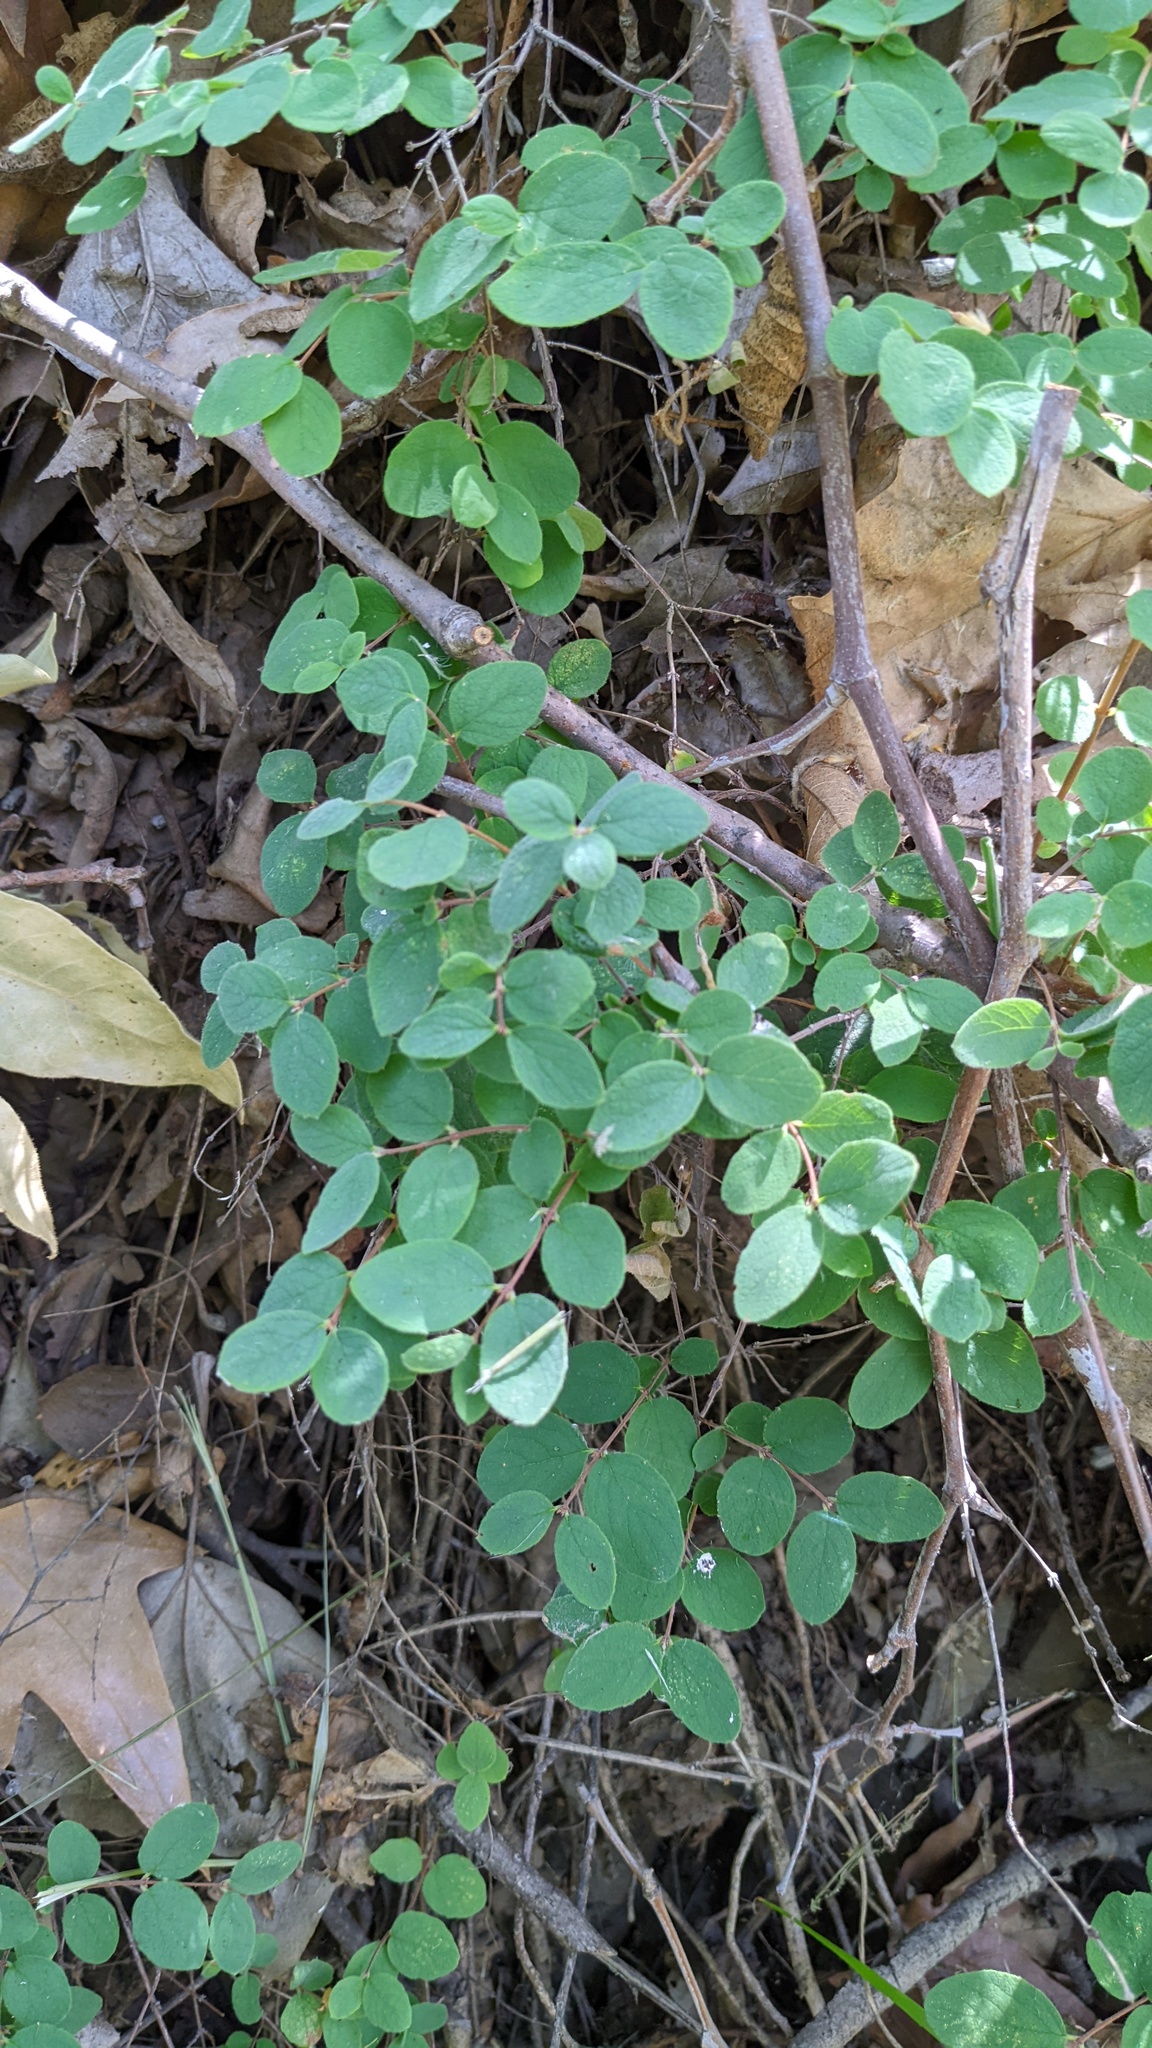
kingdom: Plantae
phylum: Tracheophyta
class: Magnoliopsida
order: Dipsacales
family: Caprifoliaceae
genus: Symphoricarpos
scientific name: Symphoricarpos mollis
